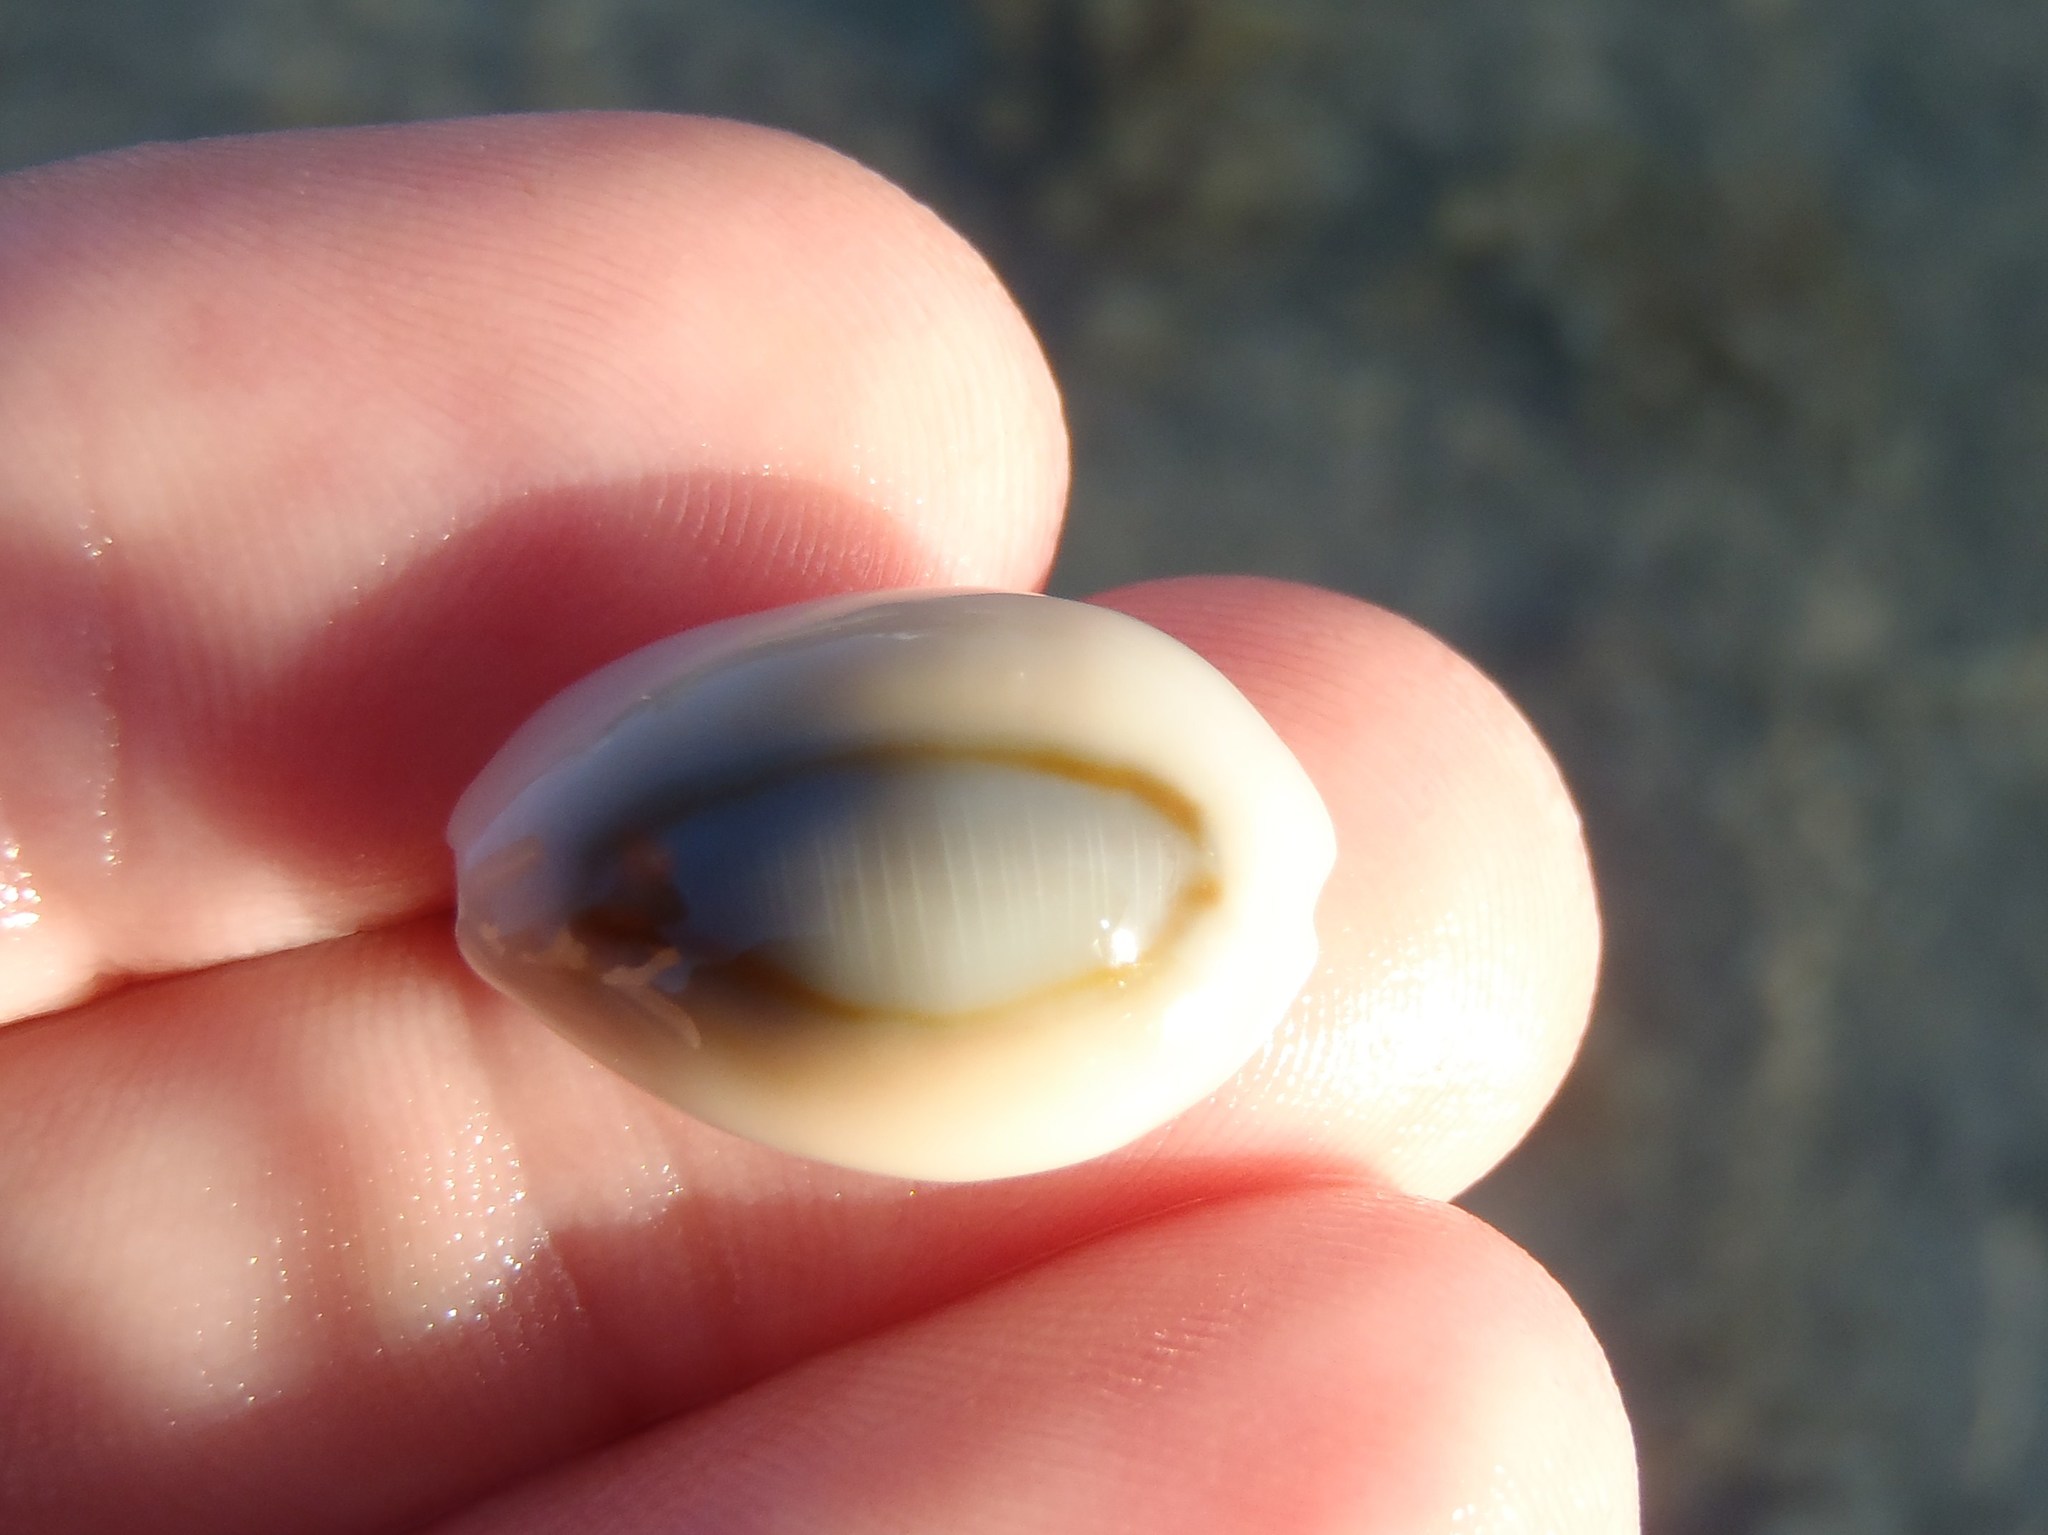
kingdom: Animalia
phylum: Mollusca
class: Gastropoda
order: Littorinimorpha
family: Cypraeidae
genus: Monetaria
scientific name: Monetaria obvelata
